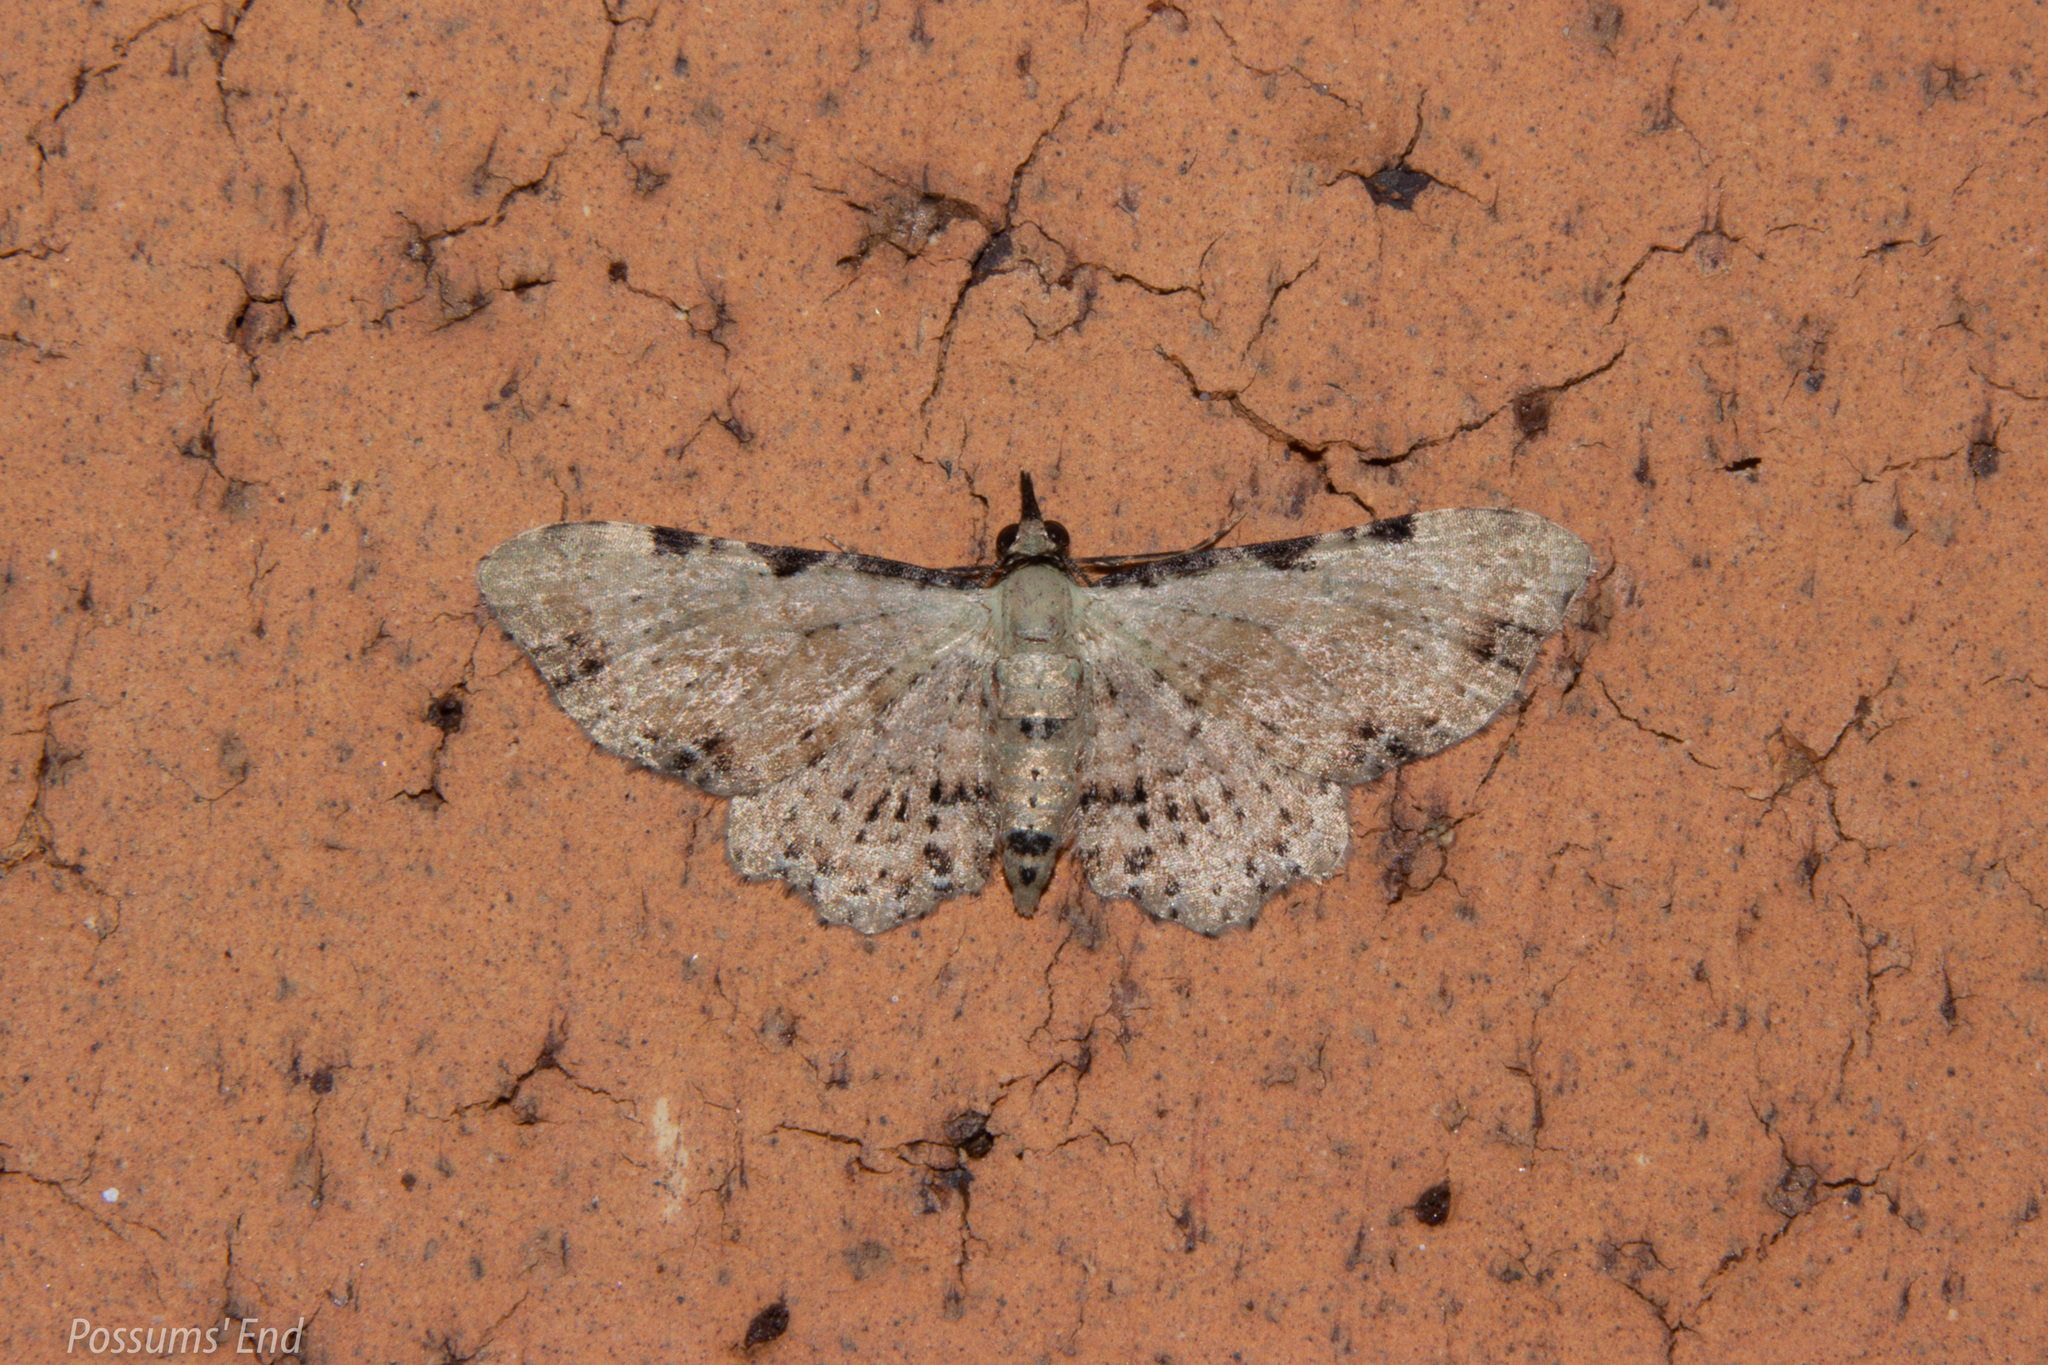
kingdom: Animalia
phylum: Arthropoda
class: Insecta
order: Lepidoptera
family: Geometridae
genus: Pasiphila
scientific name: Pasiphila fumipalpata
